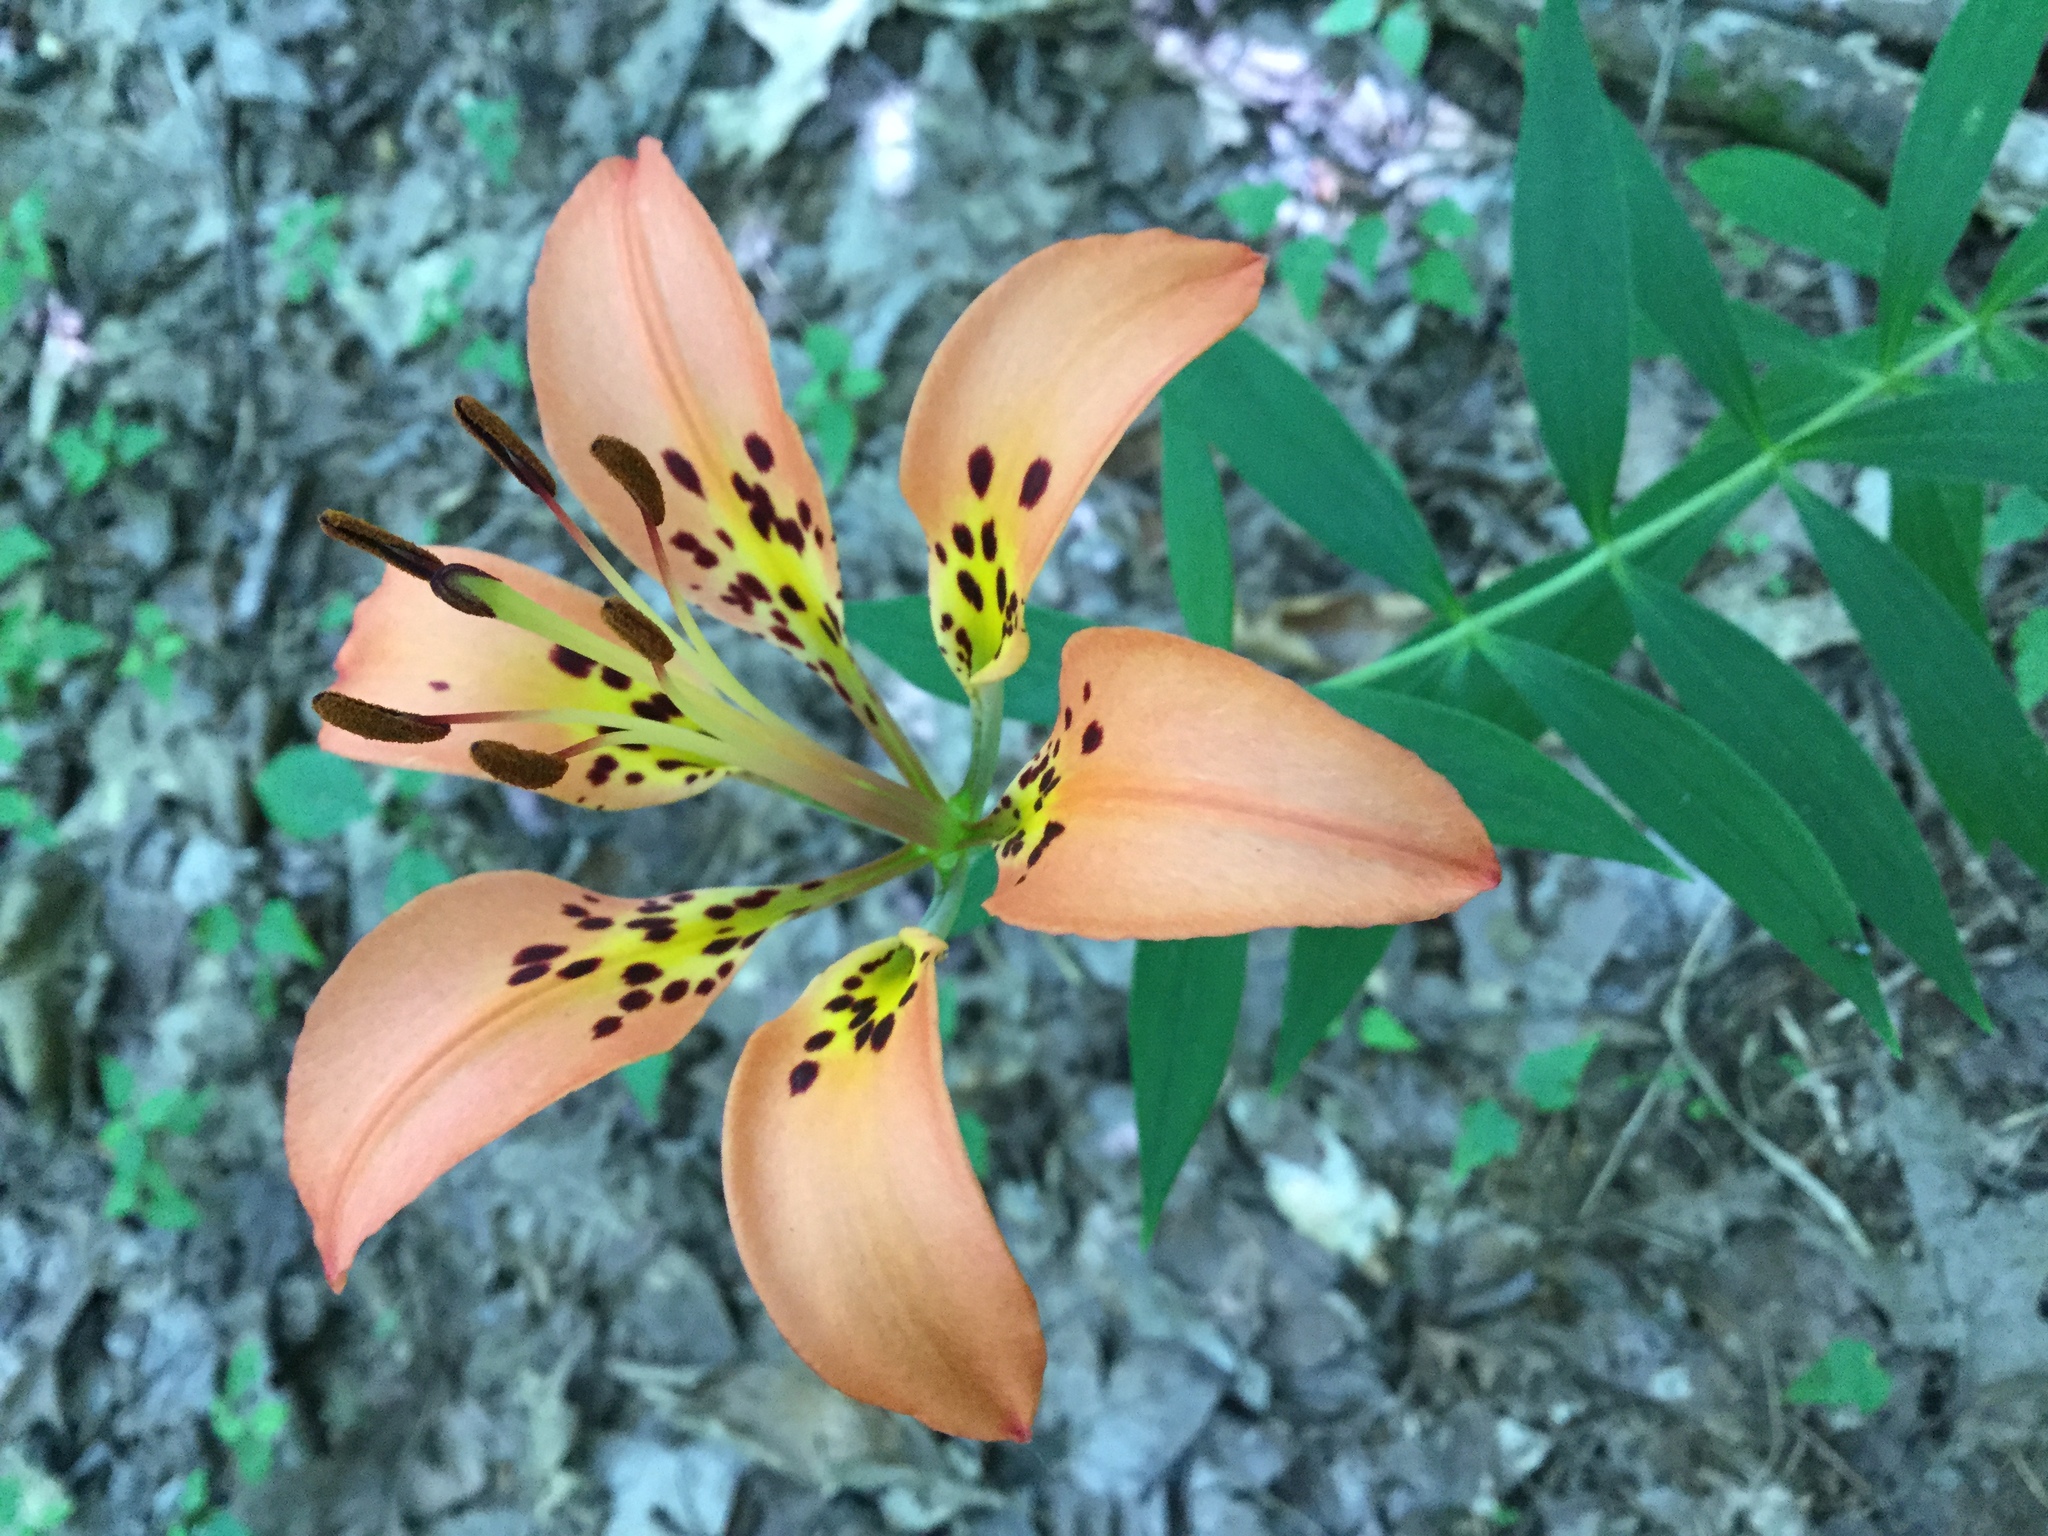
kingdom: Plantae
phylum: Tracheophyta
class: Liliopsida
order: Liliales
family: Liliaceae
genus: Lilium
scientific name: Lilium philadelphicum
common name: Red lily
